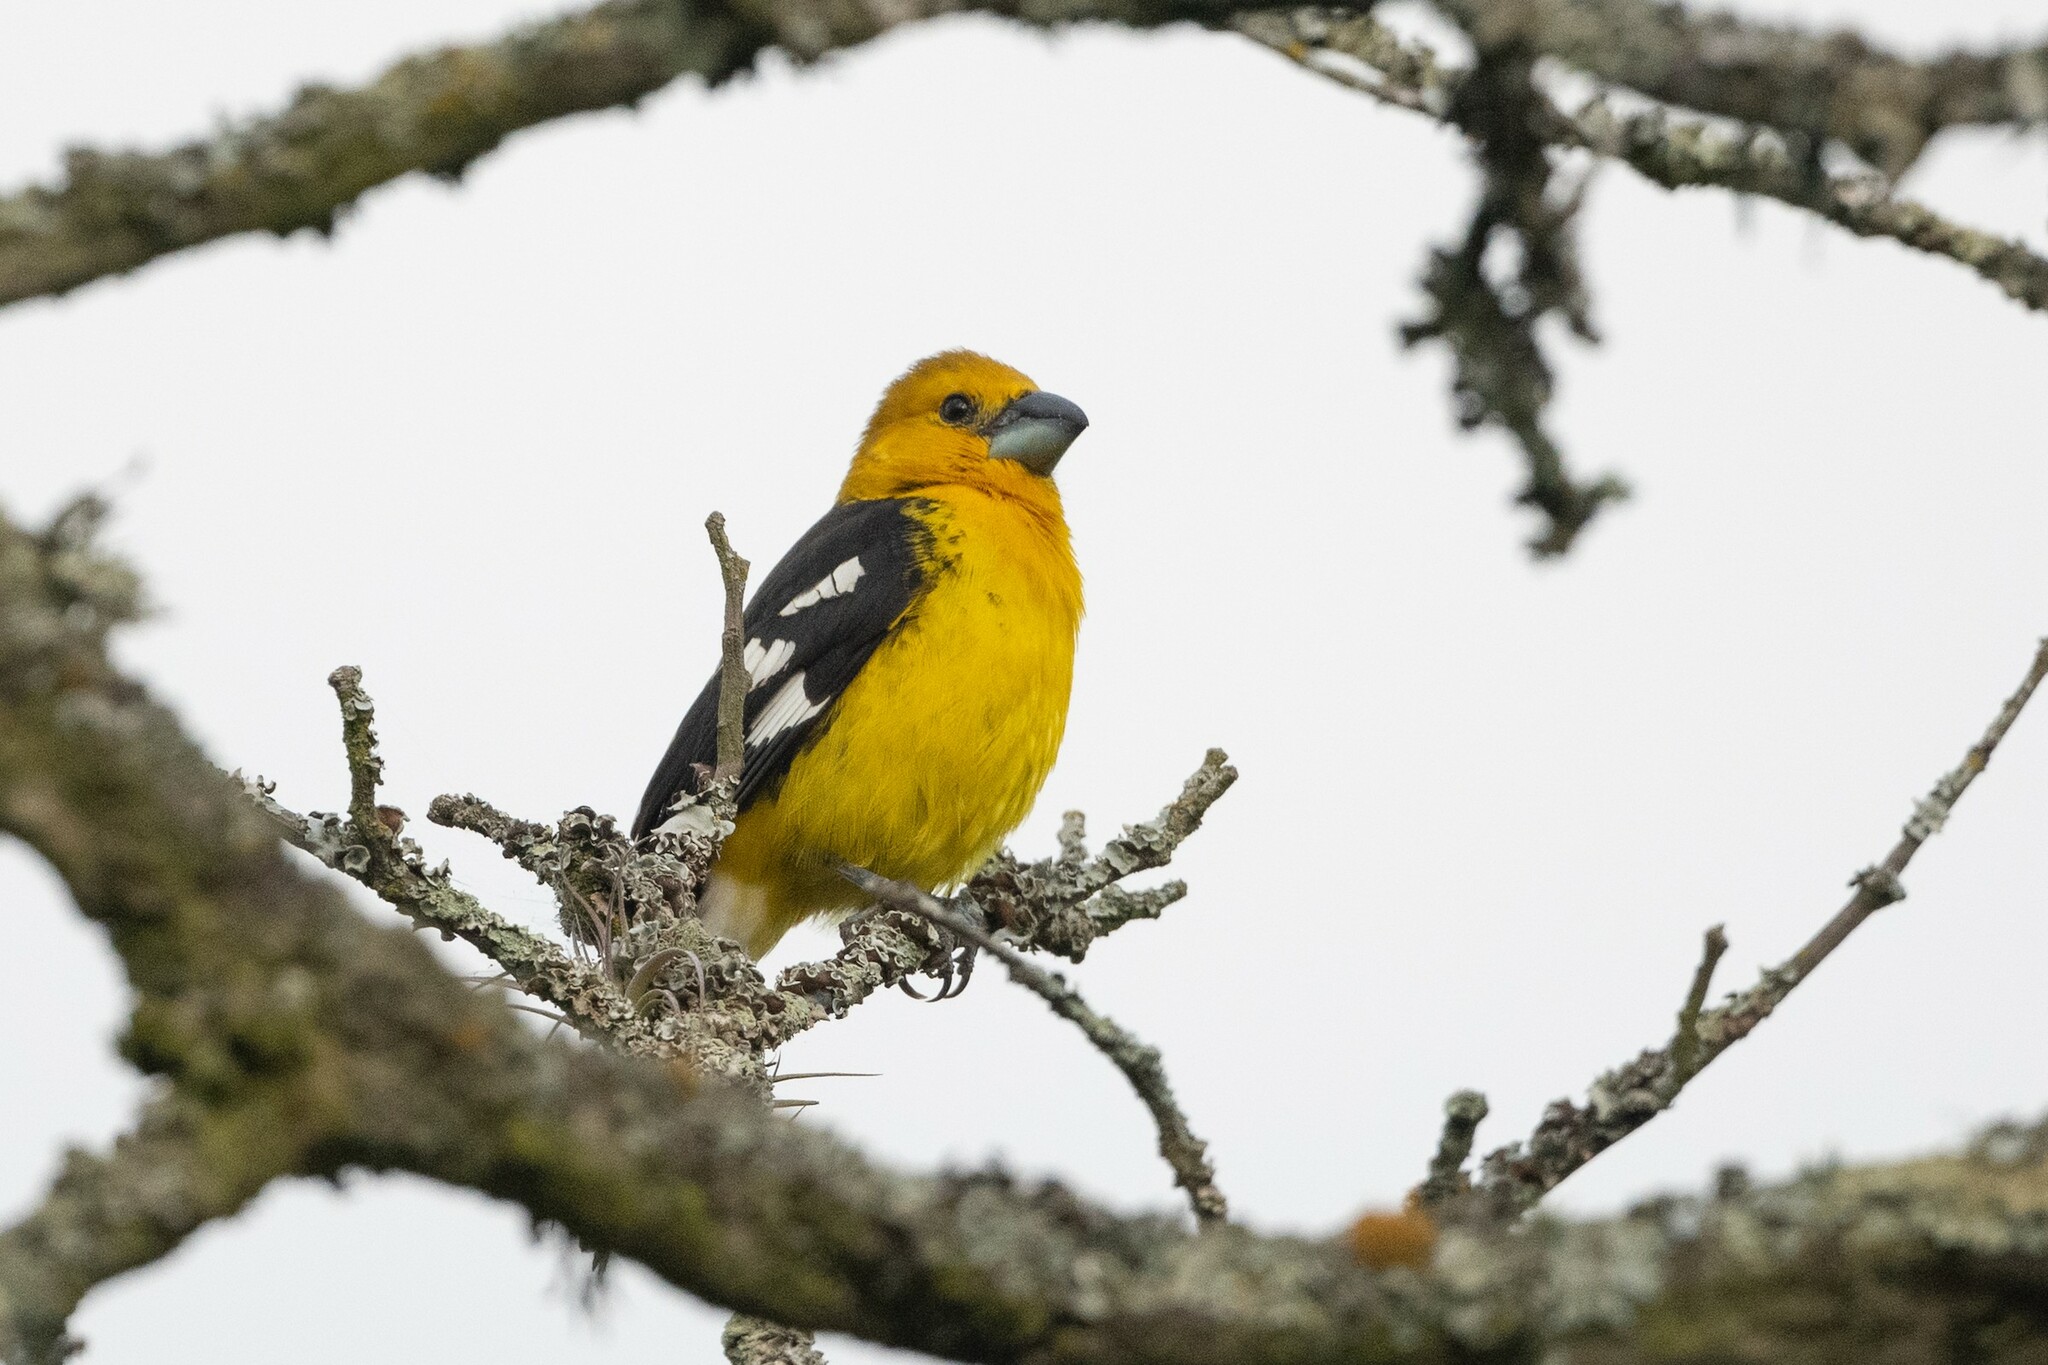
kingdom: Animalia
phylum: Chordata
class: Aves
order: Passeriformes
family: Cardinalidae
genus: Pheucticus
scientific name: Pheucticus chrysogaster
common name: Golden grosbeak
